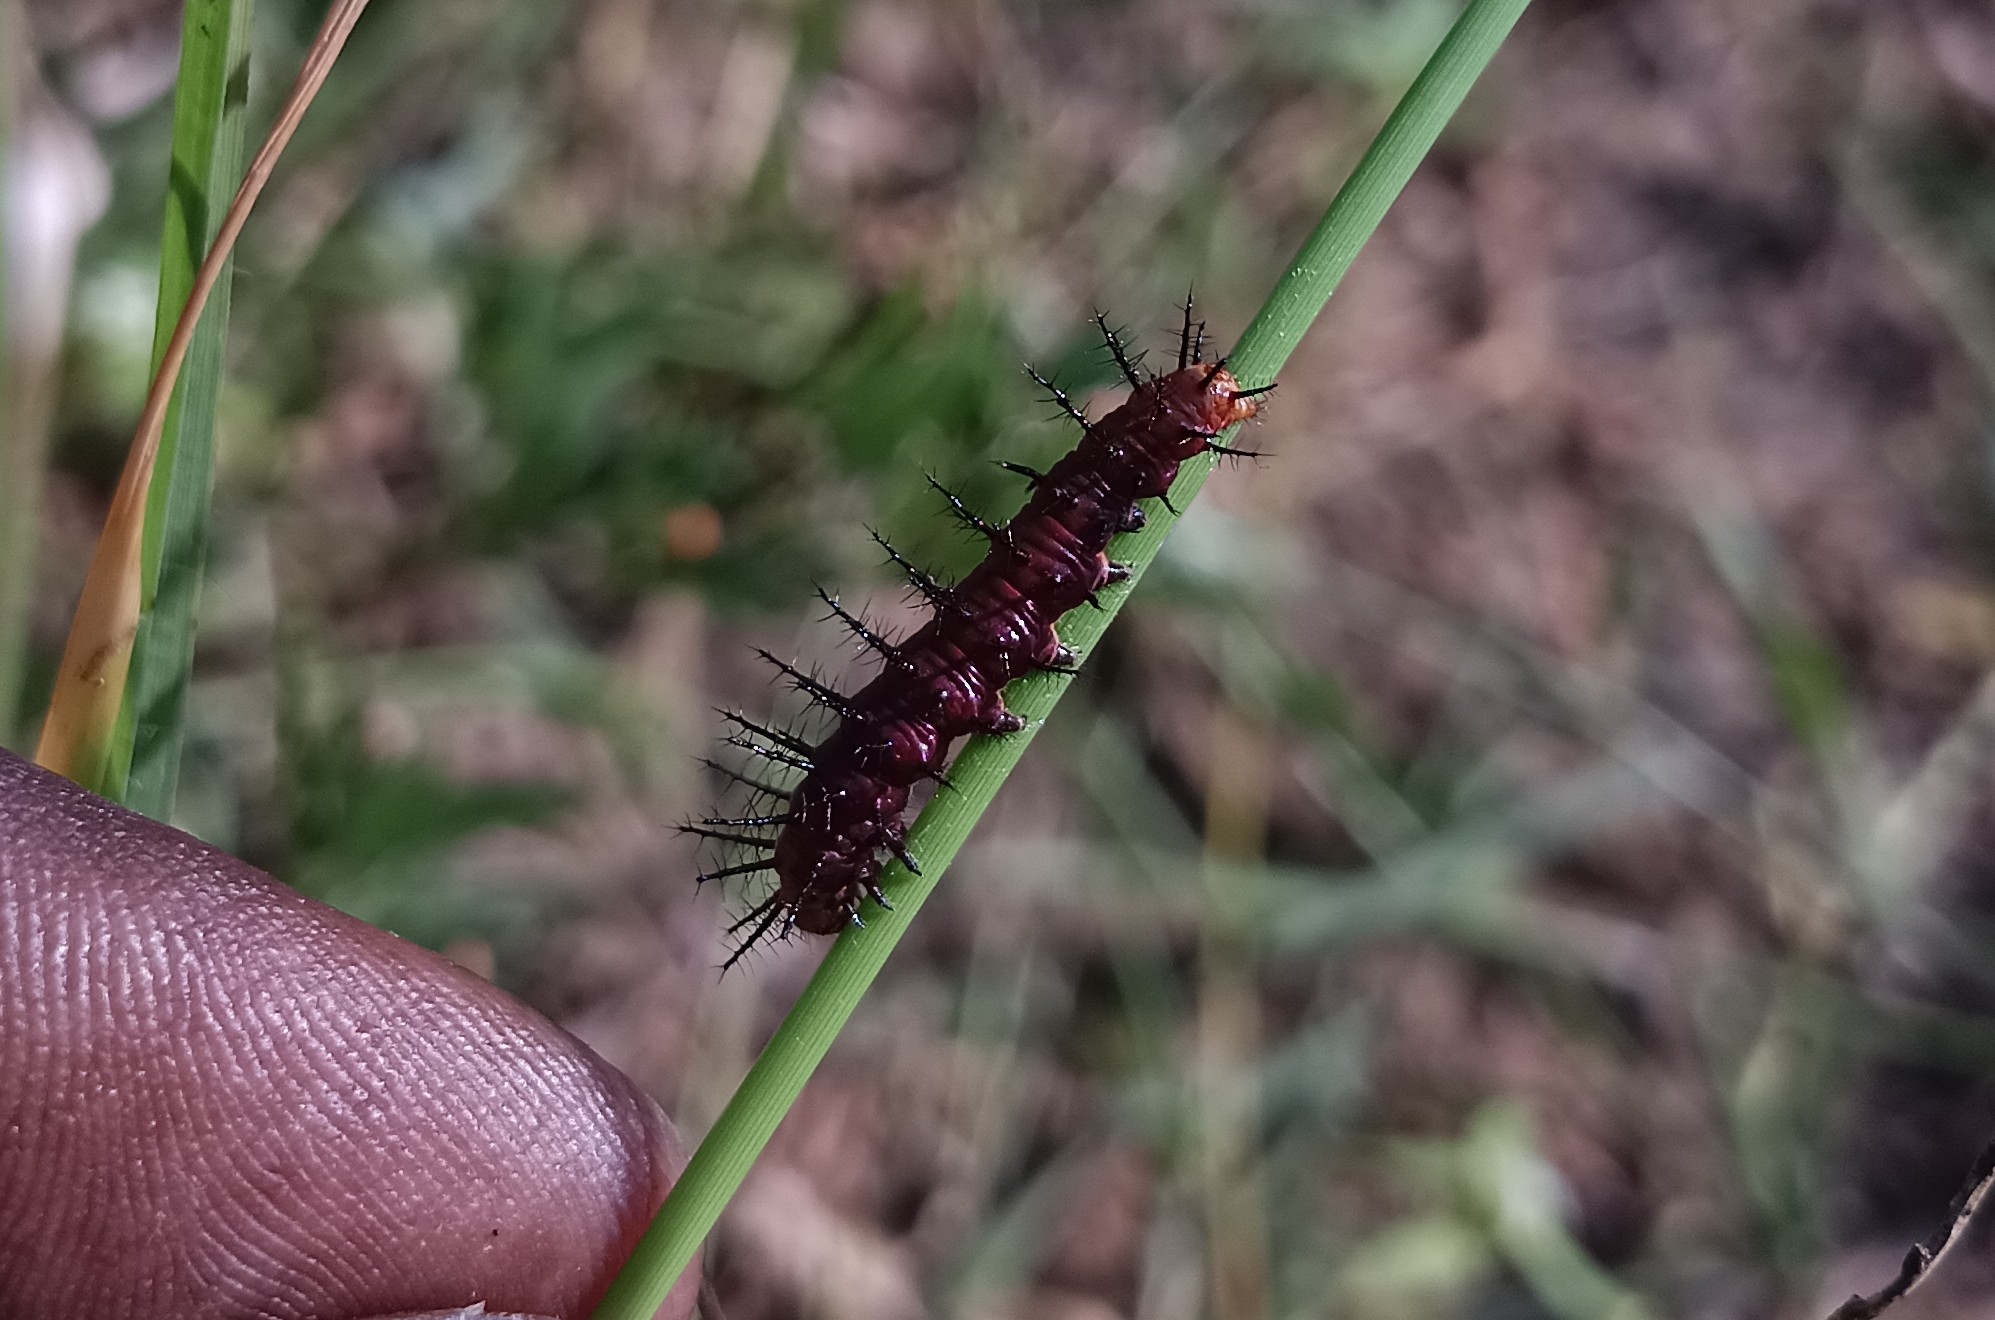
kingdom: Animalia
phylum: Arthropoda
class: Insecta
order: Lepidoptera
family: Nymphalidae
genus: Acraea
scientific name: Acraea terpsicore
